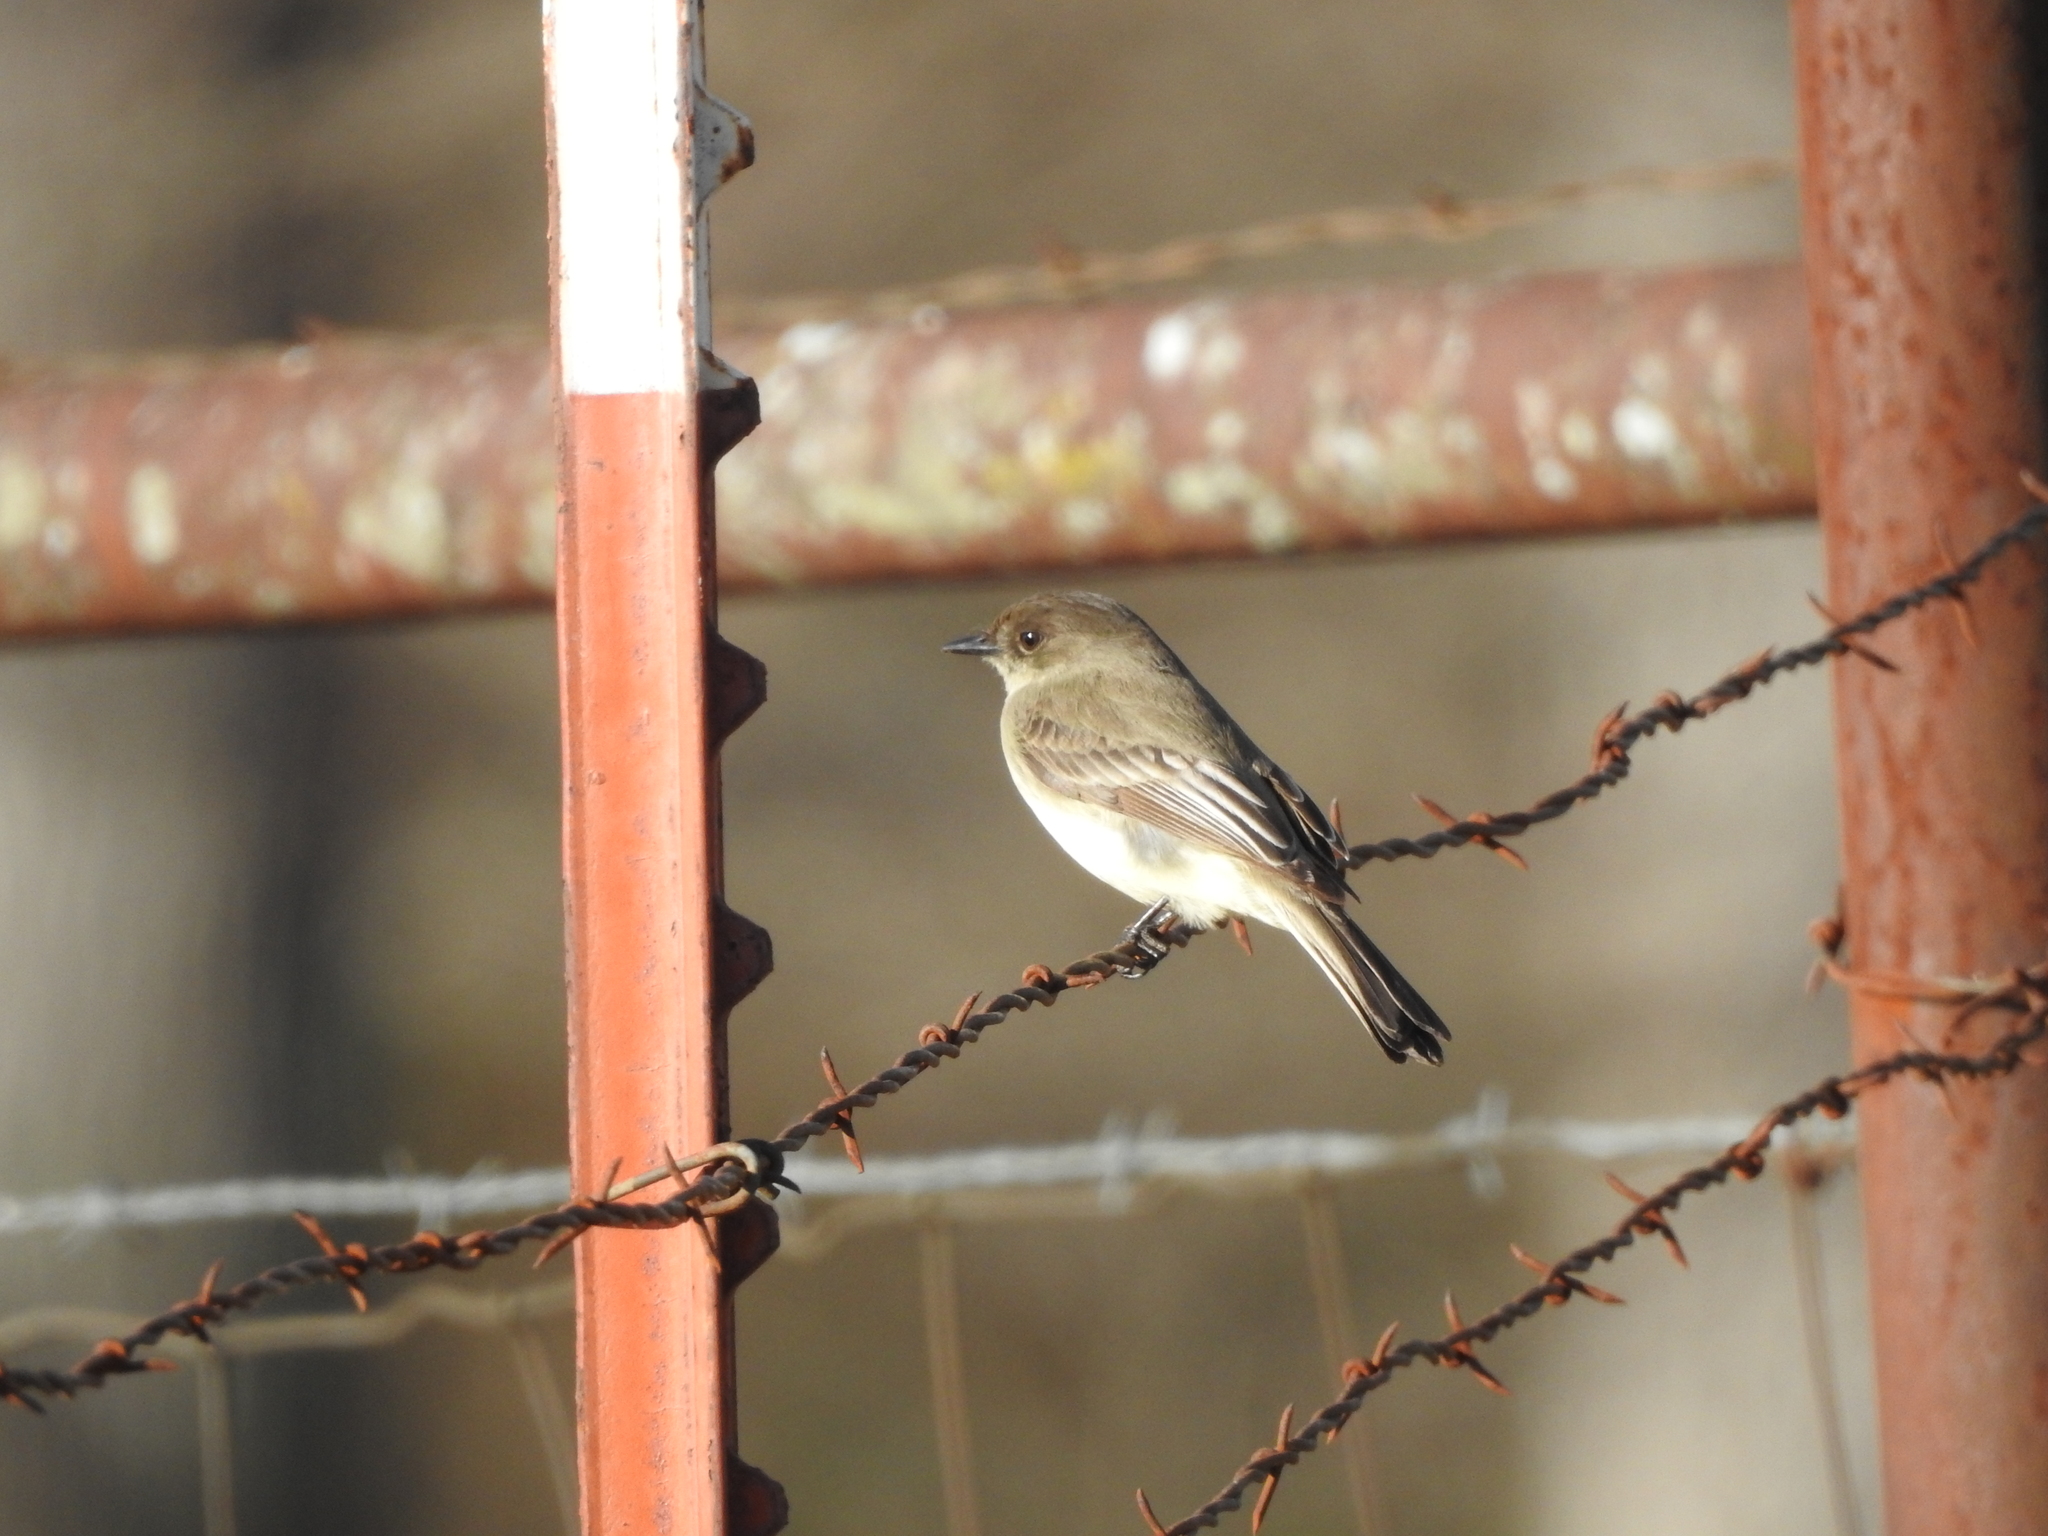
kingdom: Animalia
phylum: Chordata
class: Aves
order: Passeriformes
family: Tyrannidae
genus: Sayornis
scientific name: Sayornis phoebe
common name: Eastern phoebe
